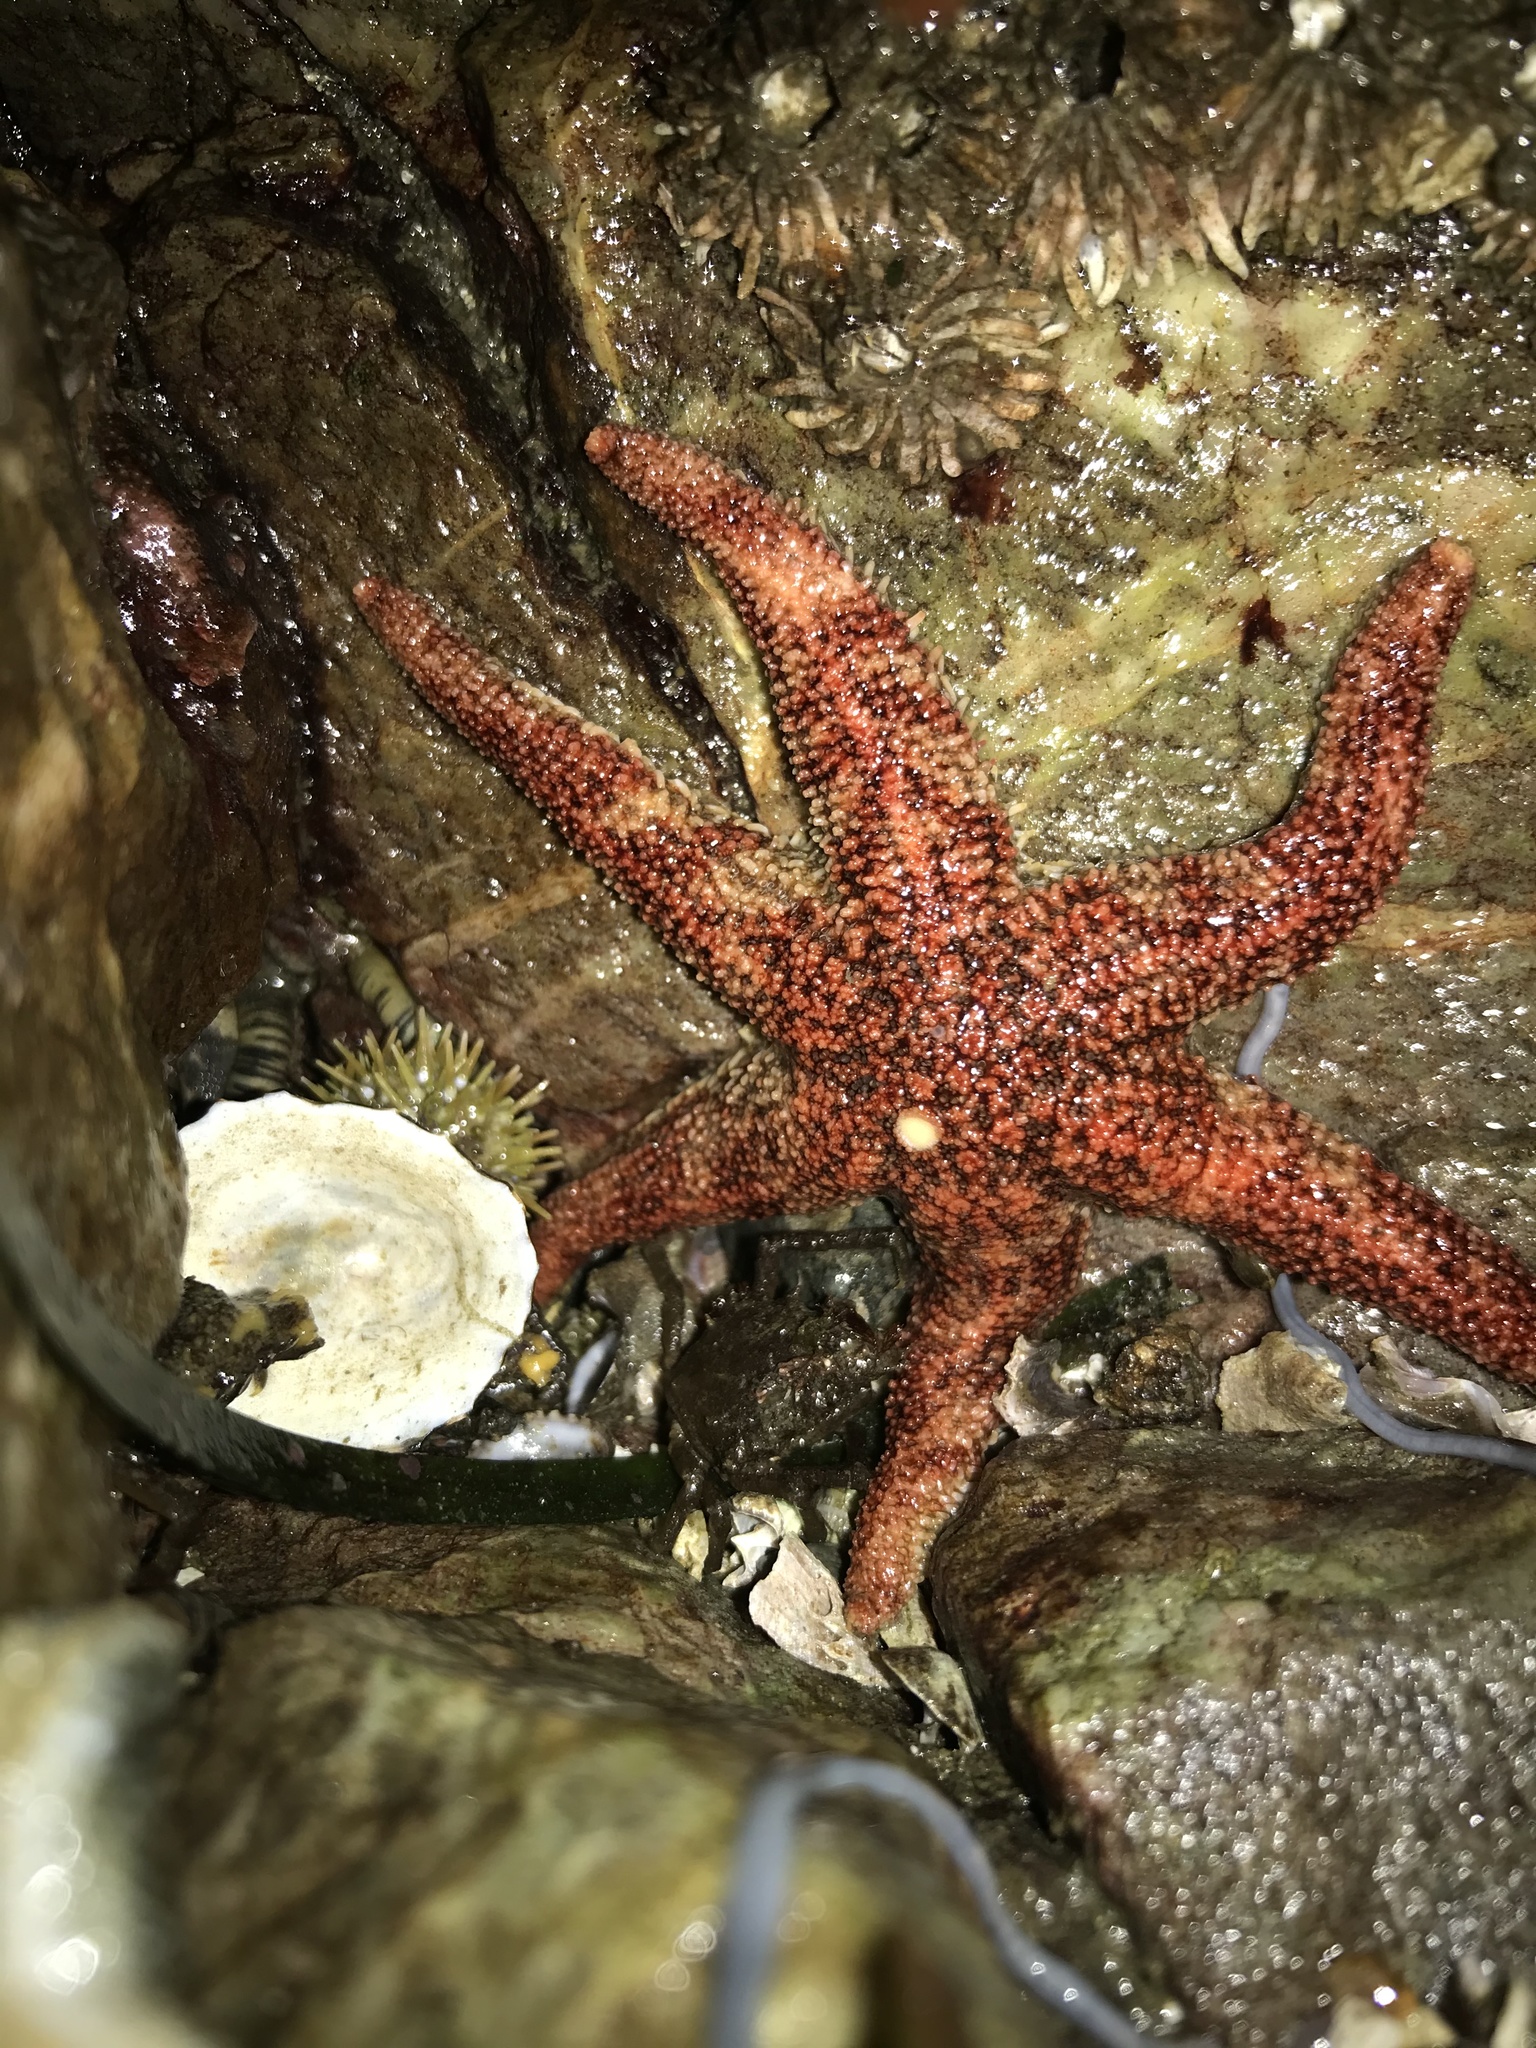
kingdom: Animalia
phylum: Echinodermata
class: Asteroidea
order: Forcipulatida
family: Asteriidae
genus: Leptasterias
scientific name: Leptasterias hexactis
